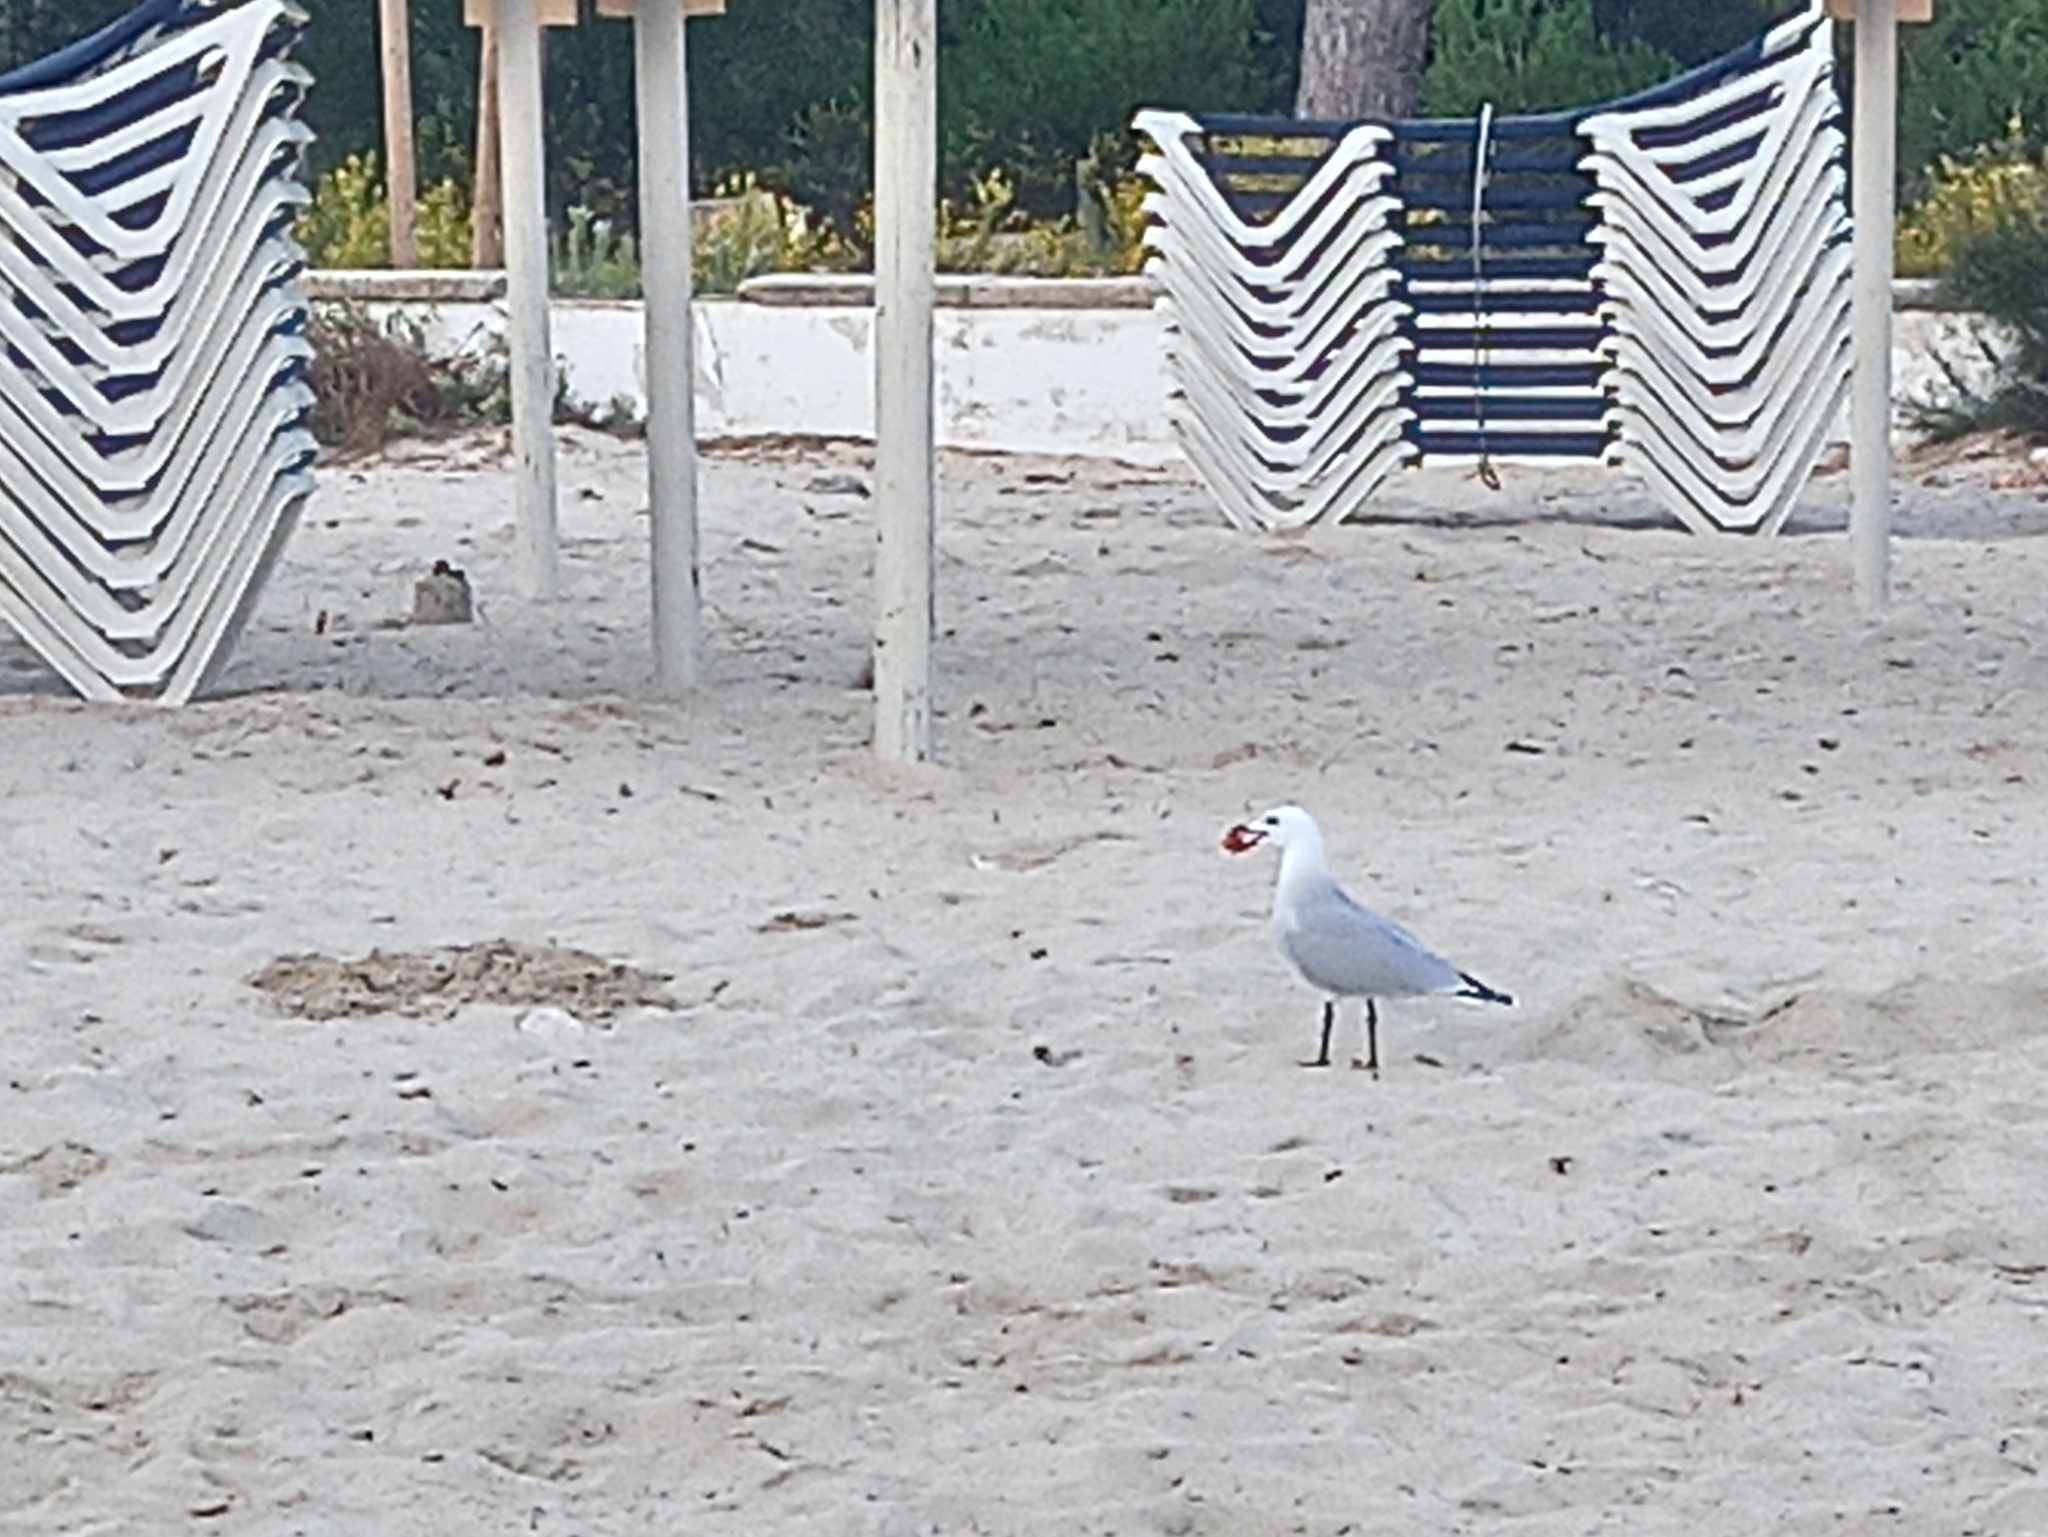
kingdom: Animalia
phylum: Chordata
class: Aves
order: Charadriiformes
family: Laridae
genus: Ichthyaetus
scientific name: Ichthyaetus audouinii
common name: Audouin's gull
